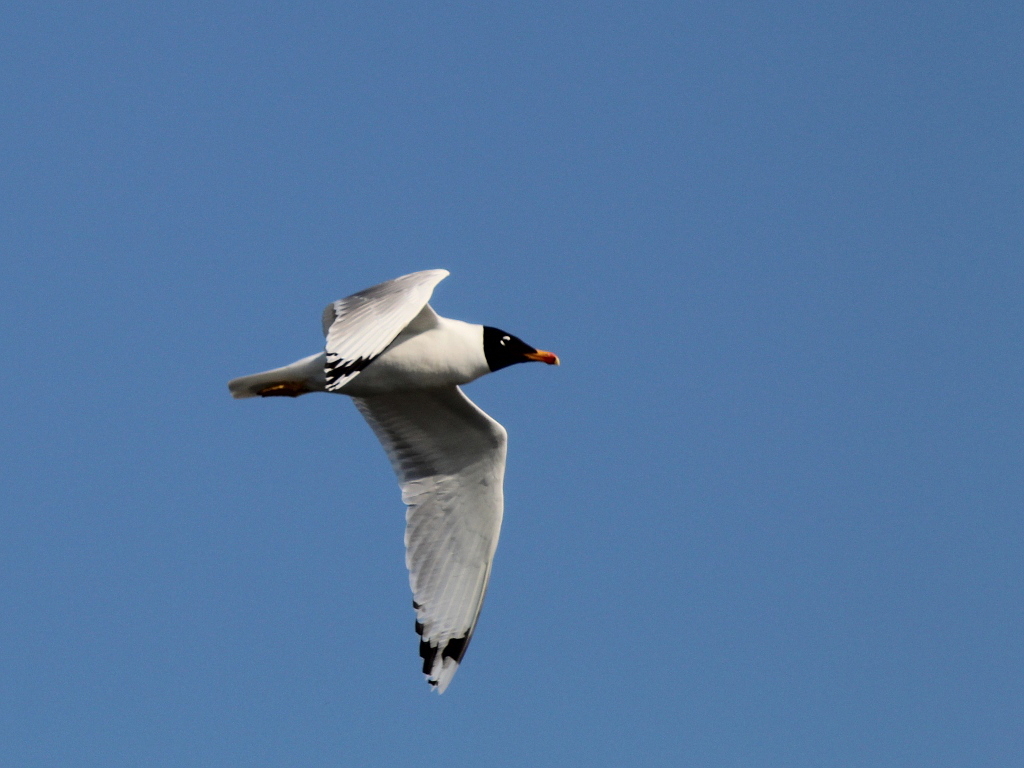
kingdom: Animalia
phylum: Chordata
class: Aves
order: Charadriiformes
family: Laridae
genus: Ichthyaetus
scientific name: Ichthyaetus ichthyaetus
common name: Pallas's gull
